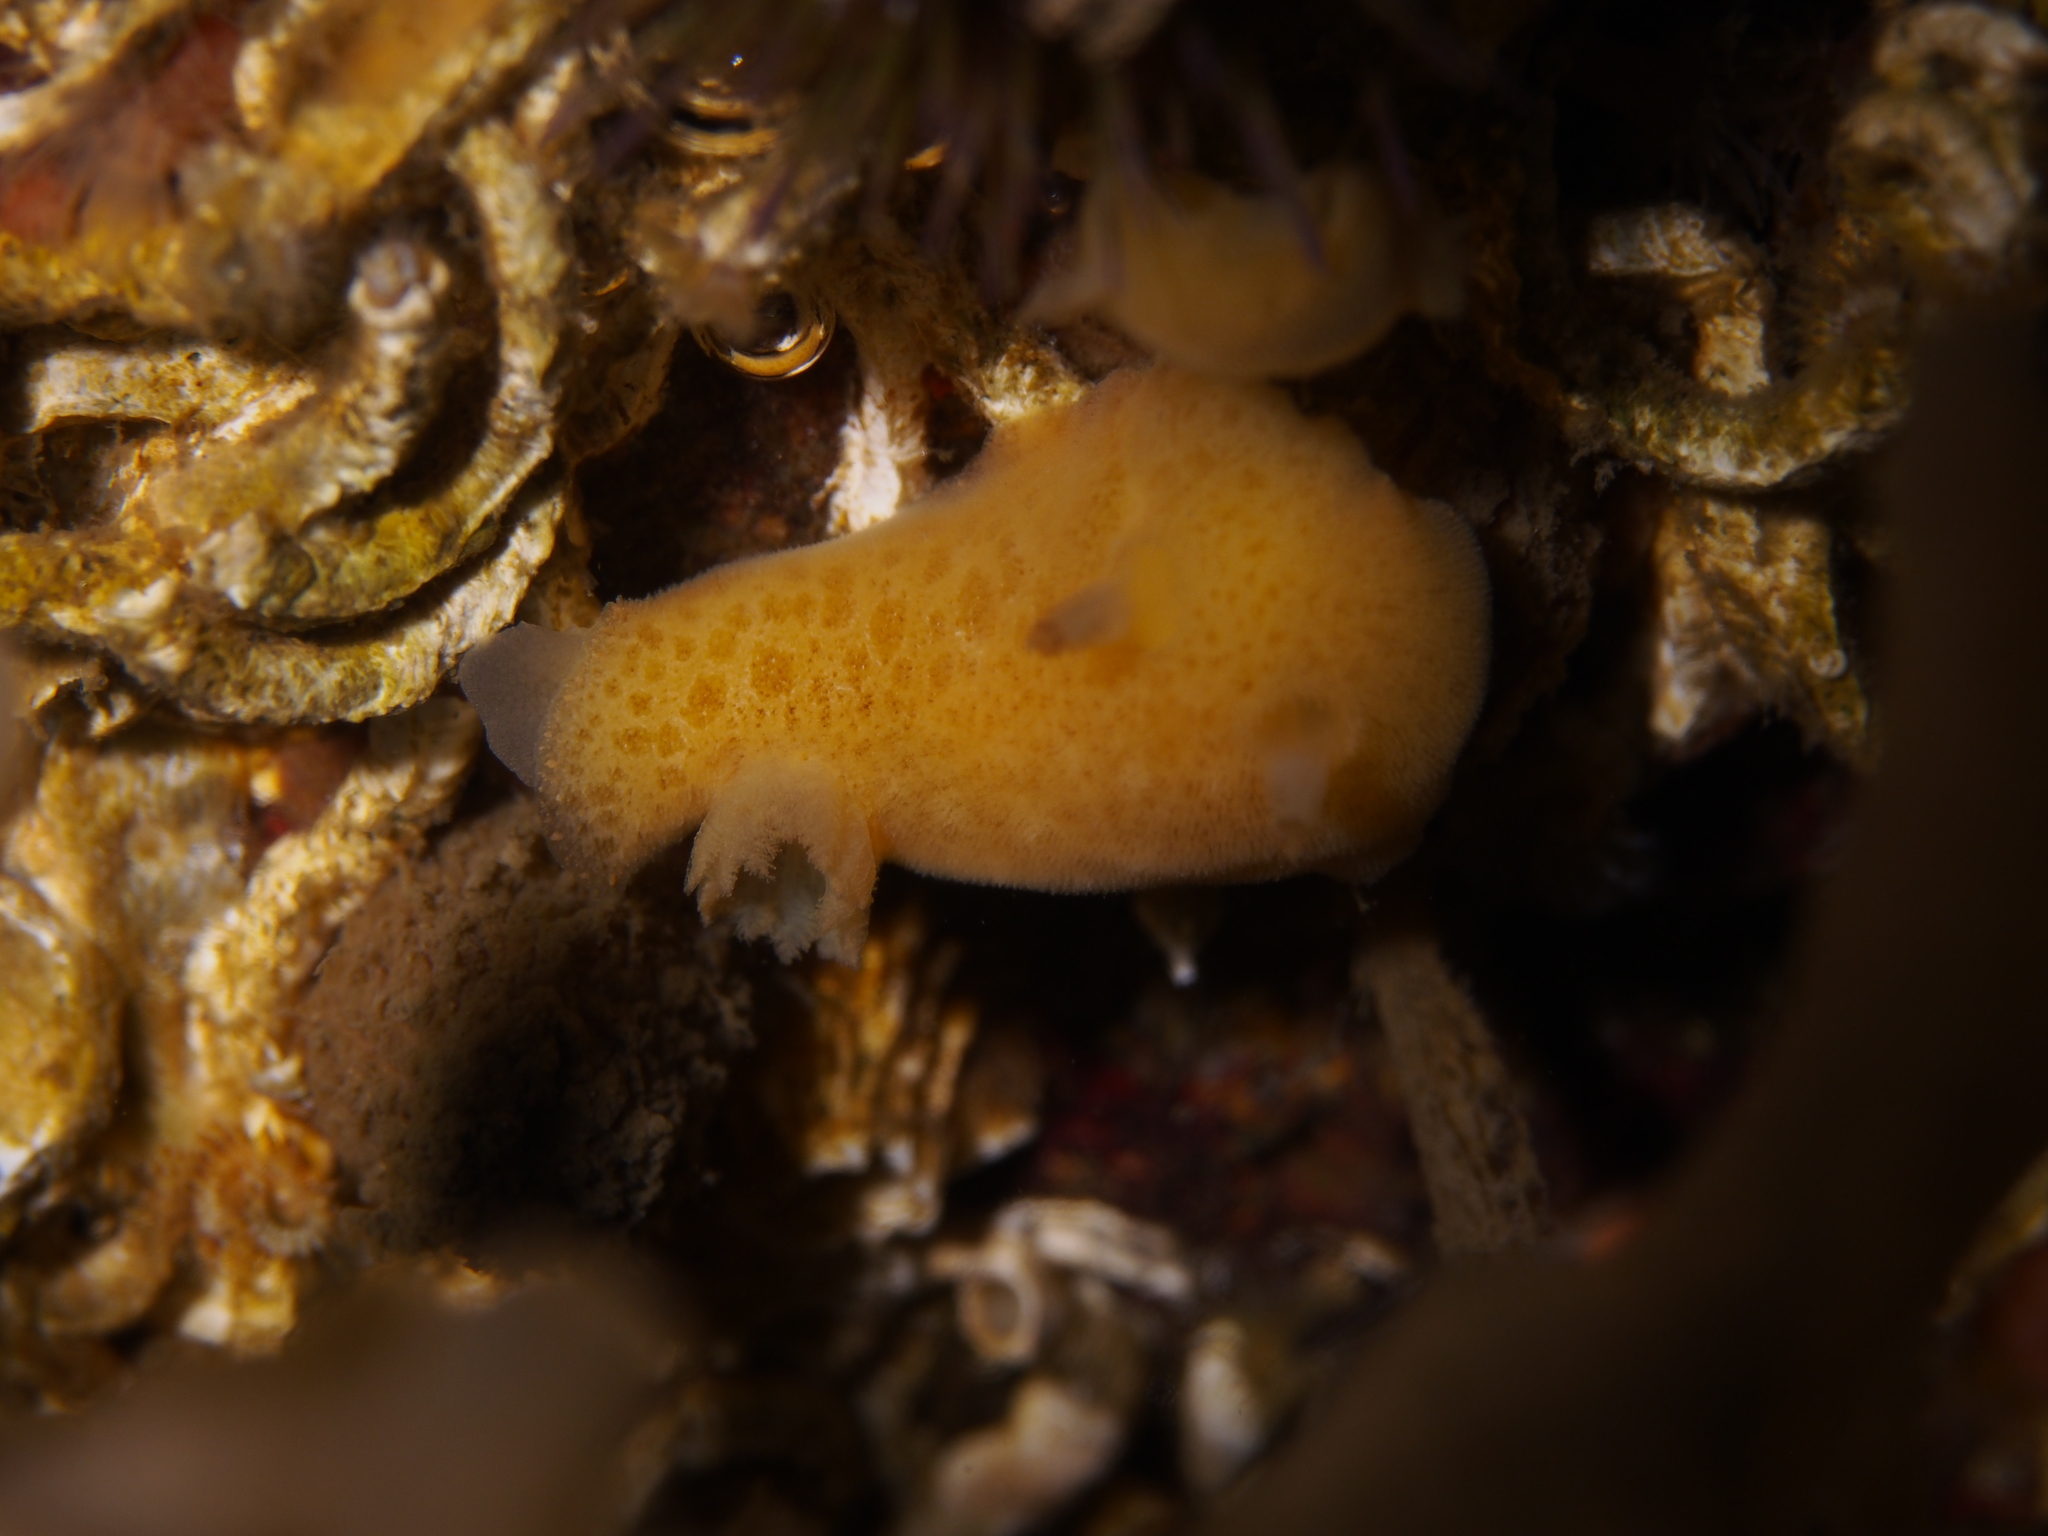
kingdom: Animalia
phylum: Mollusca
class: Gastropoda
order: Nudibranchia
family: Discodorididae
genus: Jorunna
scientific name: Jorunna tomentosa
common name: Grey sea slug
